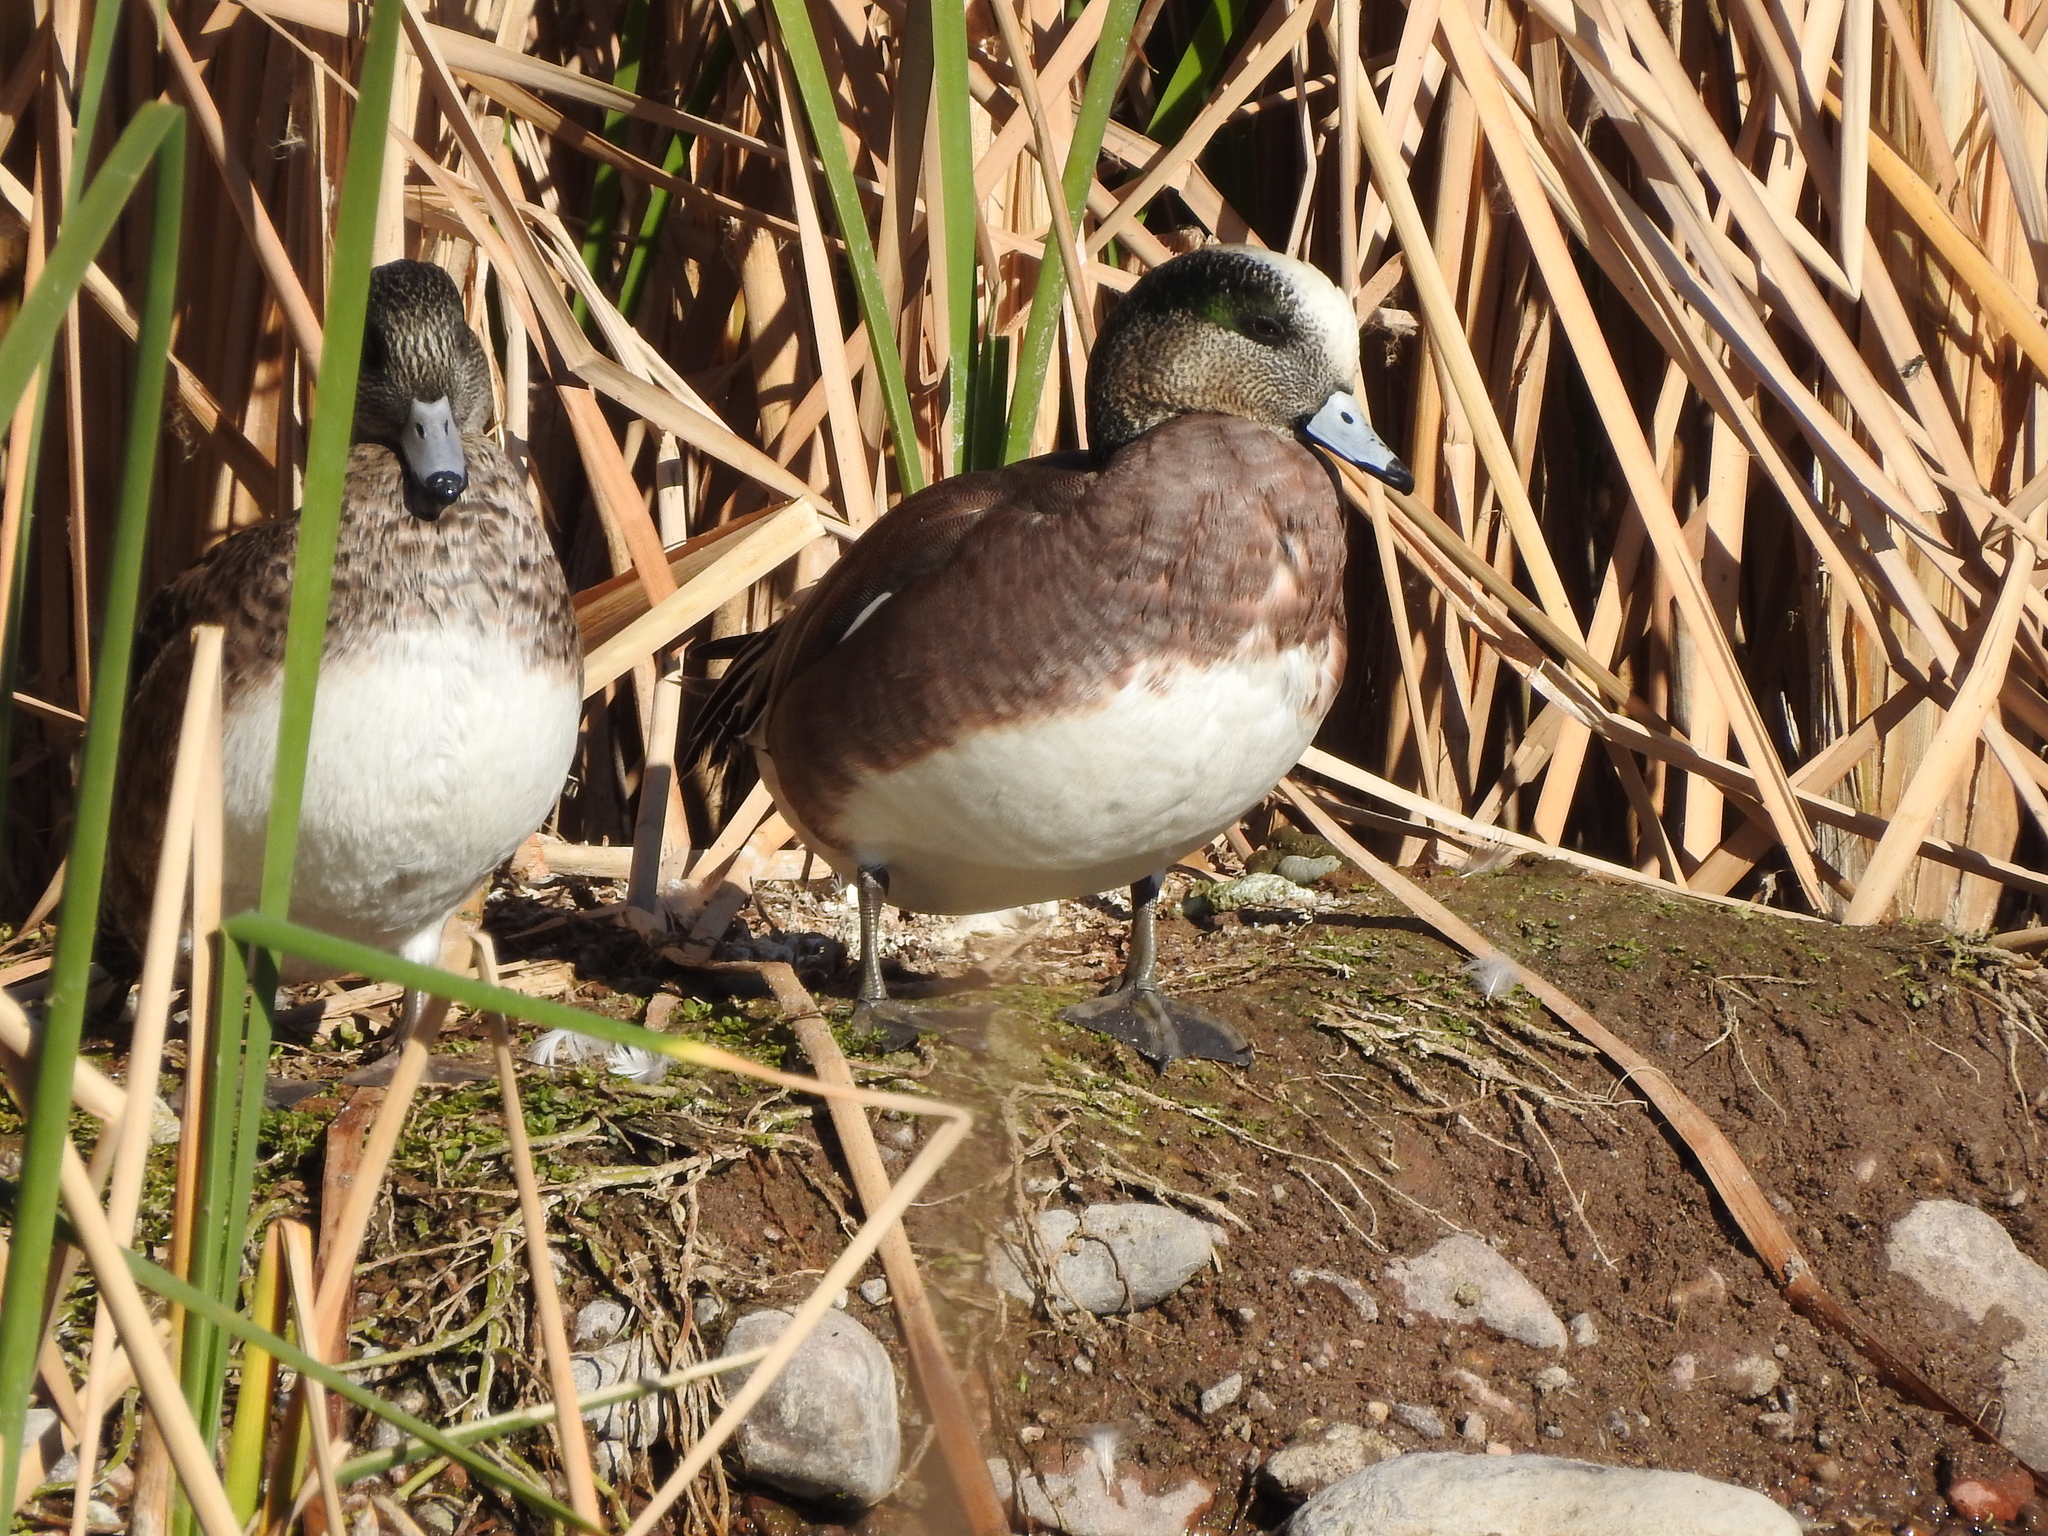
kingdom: Animalia
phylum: Chordata
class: Aves
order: Anseriformes
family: Anatidae
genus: Mareca
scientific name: Mareca americana
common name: American wigeon
